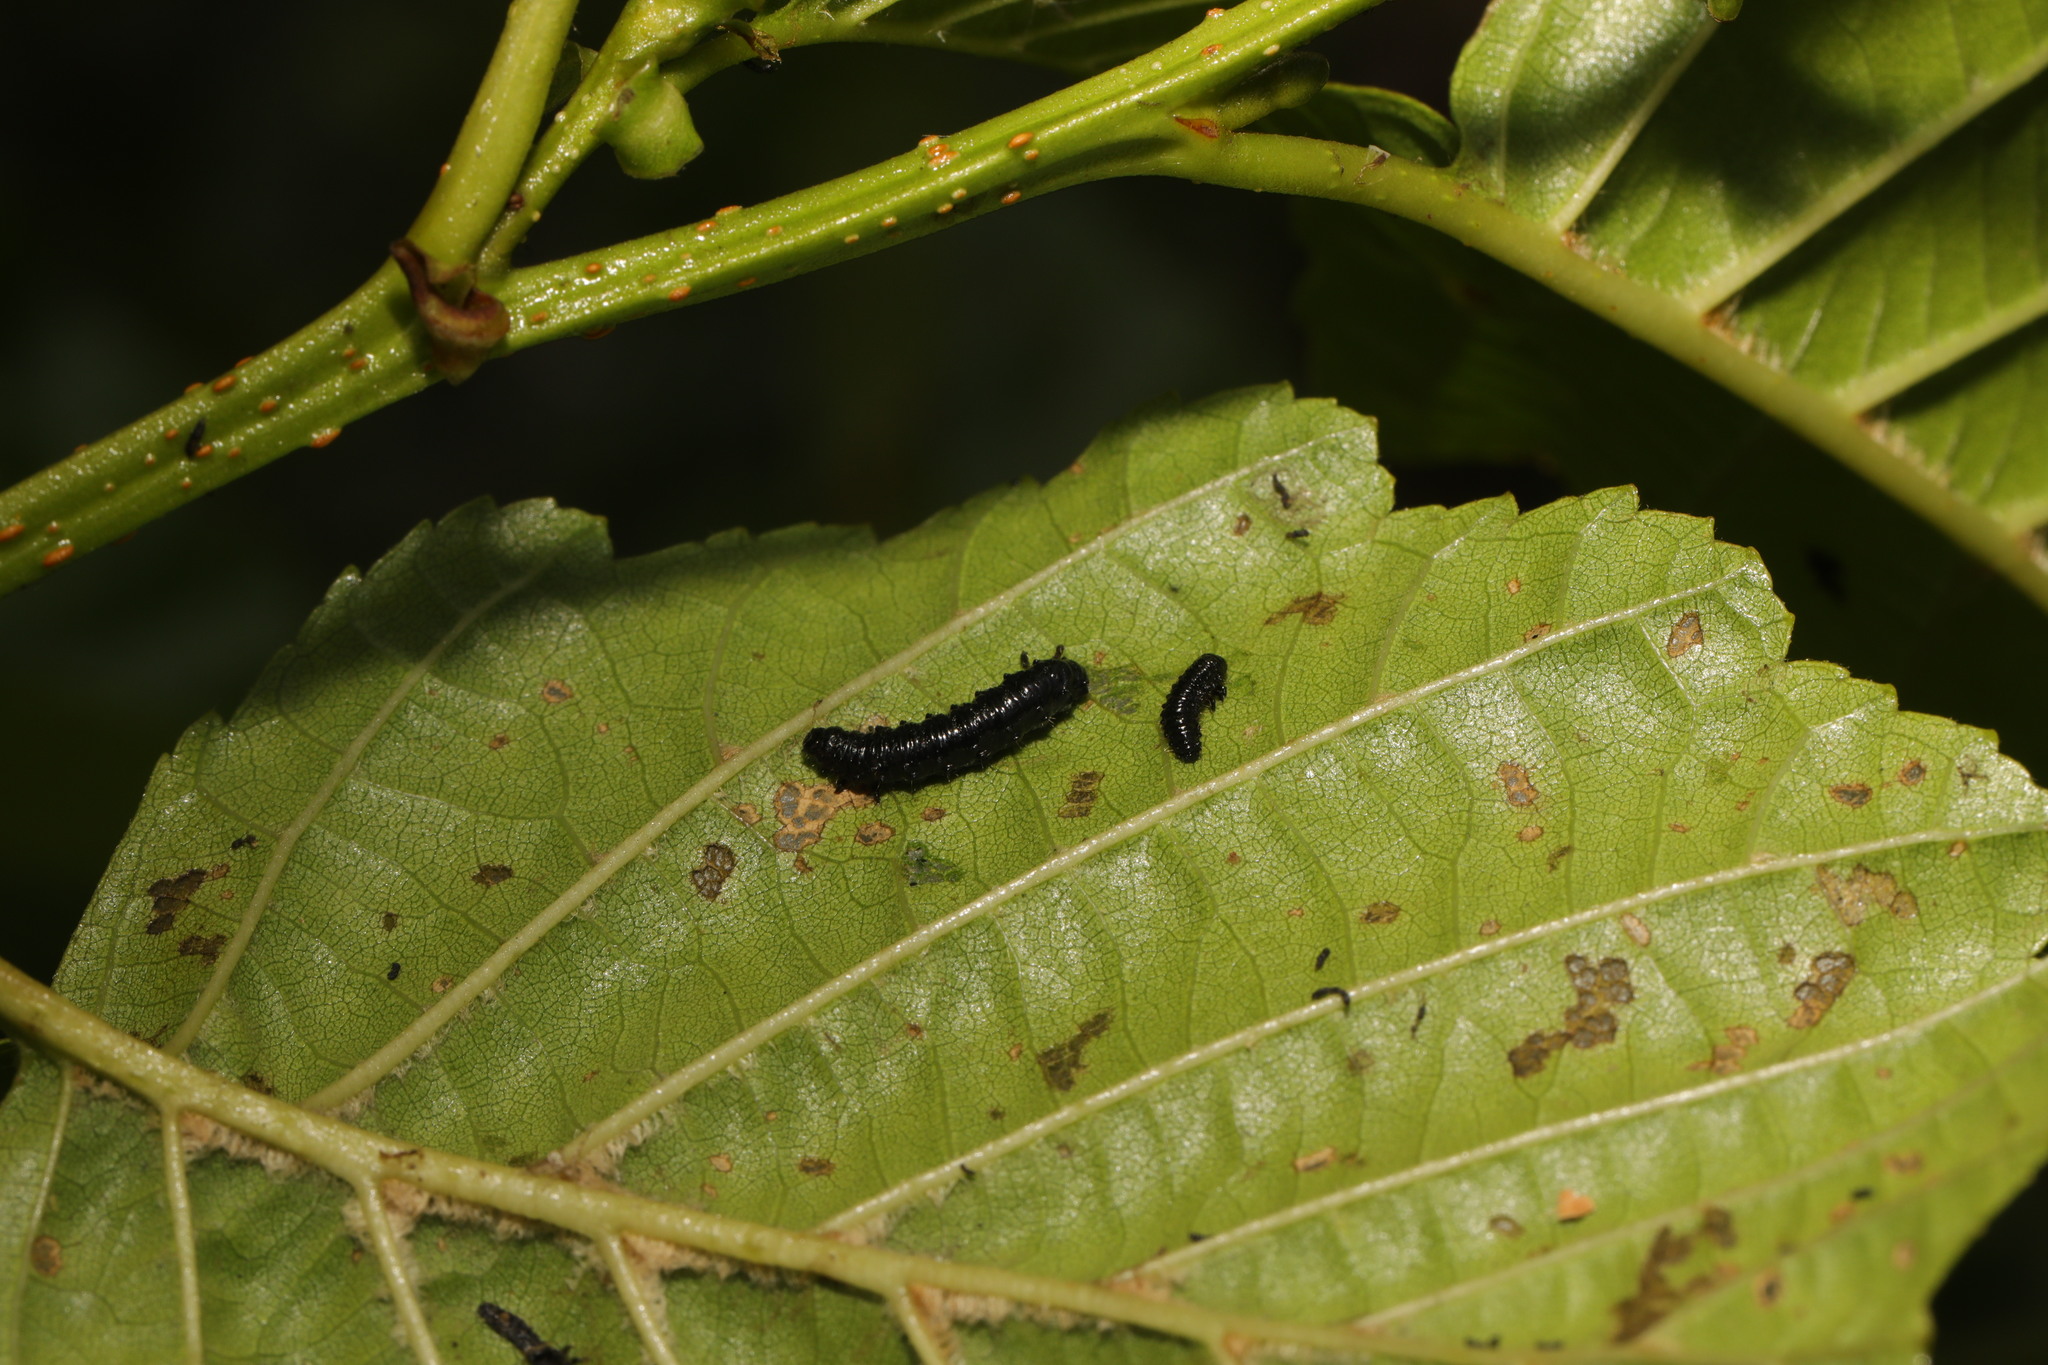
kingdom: Animalia
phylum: Arthropoda
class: Insecta
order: Coleoptera
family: Chrysomelidae
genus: Agelastica
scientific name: Agelastica alni
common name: Alder leaf beetle
